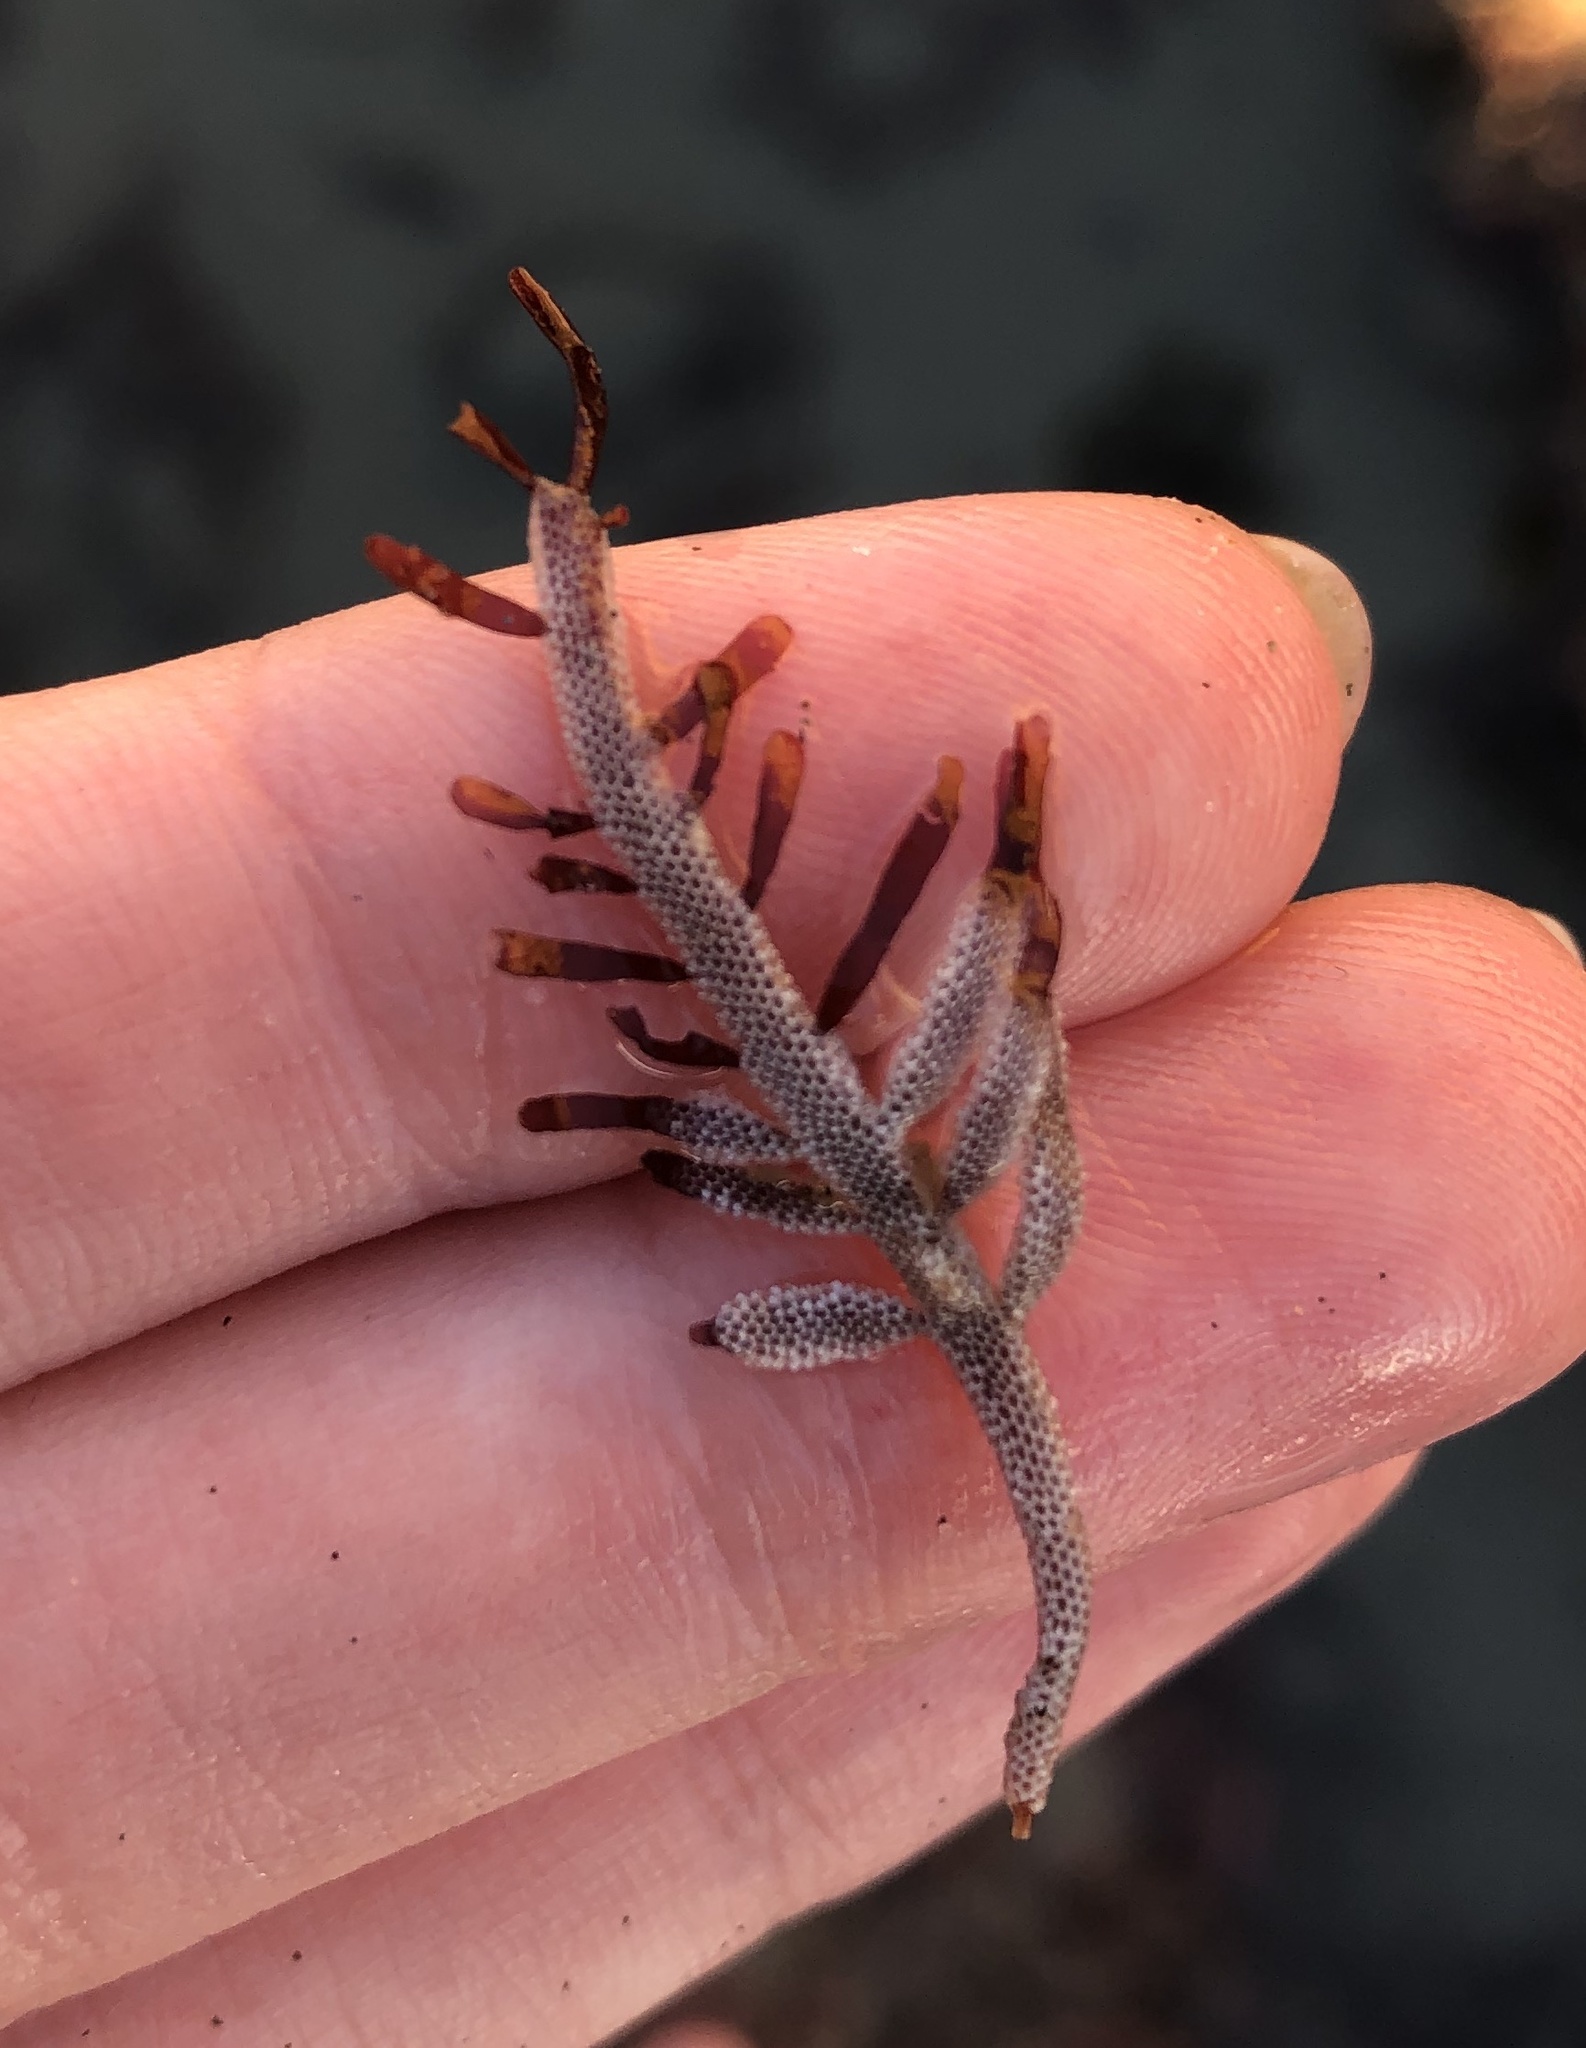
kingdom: Animalia
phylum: Bryozoa
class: Gymnolaemata
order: Cheilostomatida
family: Membraniporidae
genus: Jellyella
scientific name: Jellyella tuberculata
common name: Sargassum bryozoan
